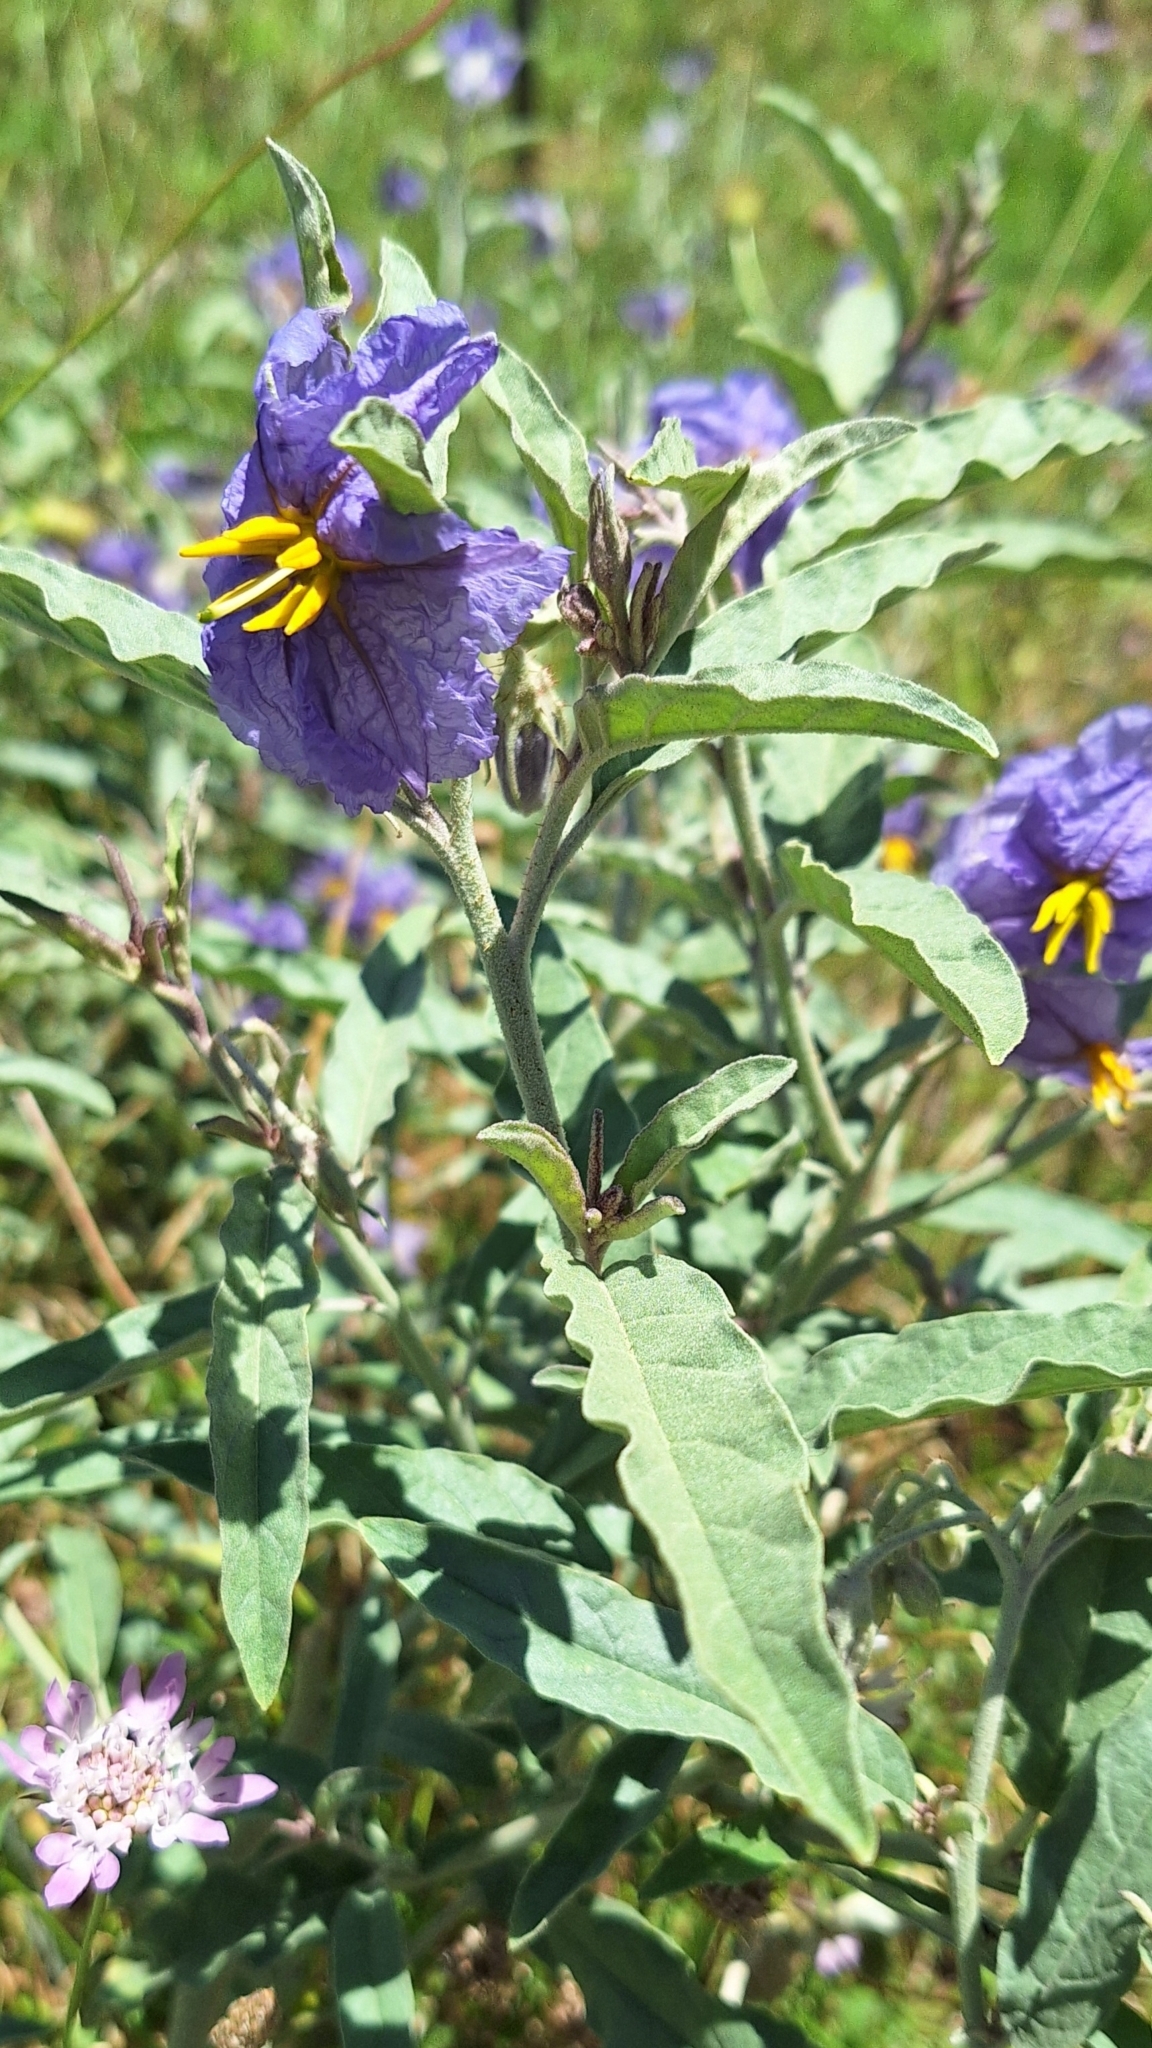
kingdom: Plantae
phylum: Tracheophyta
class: Magnoliopsida
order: Solanales
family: Solanaceae
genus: Solanum
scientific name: Solanum elaeagnifolium
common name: Silverleaf nightshade
